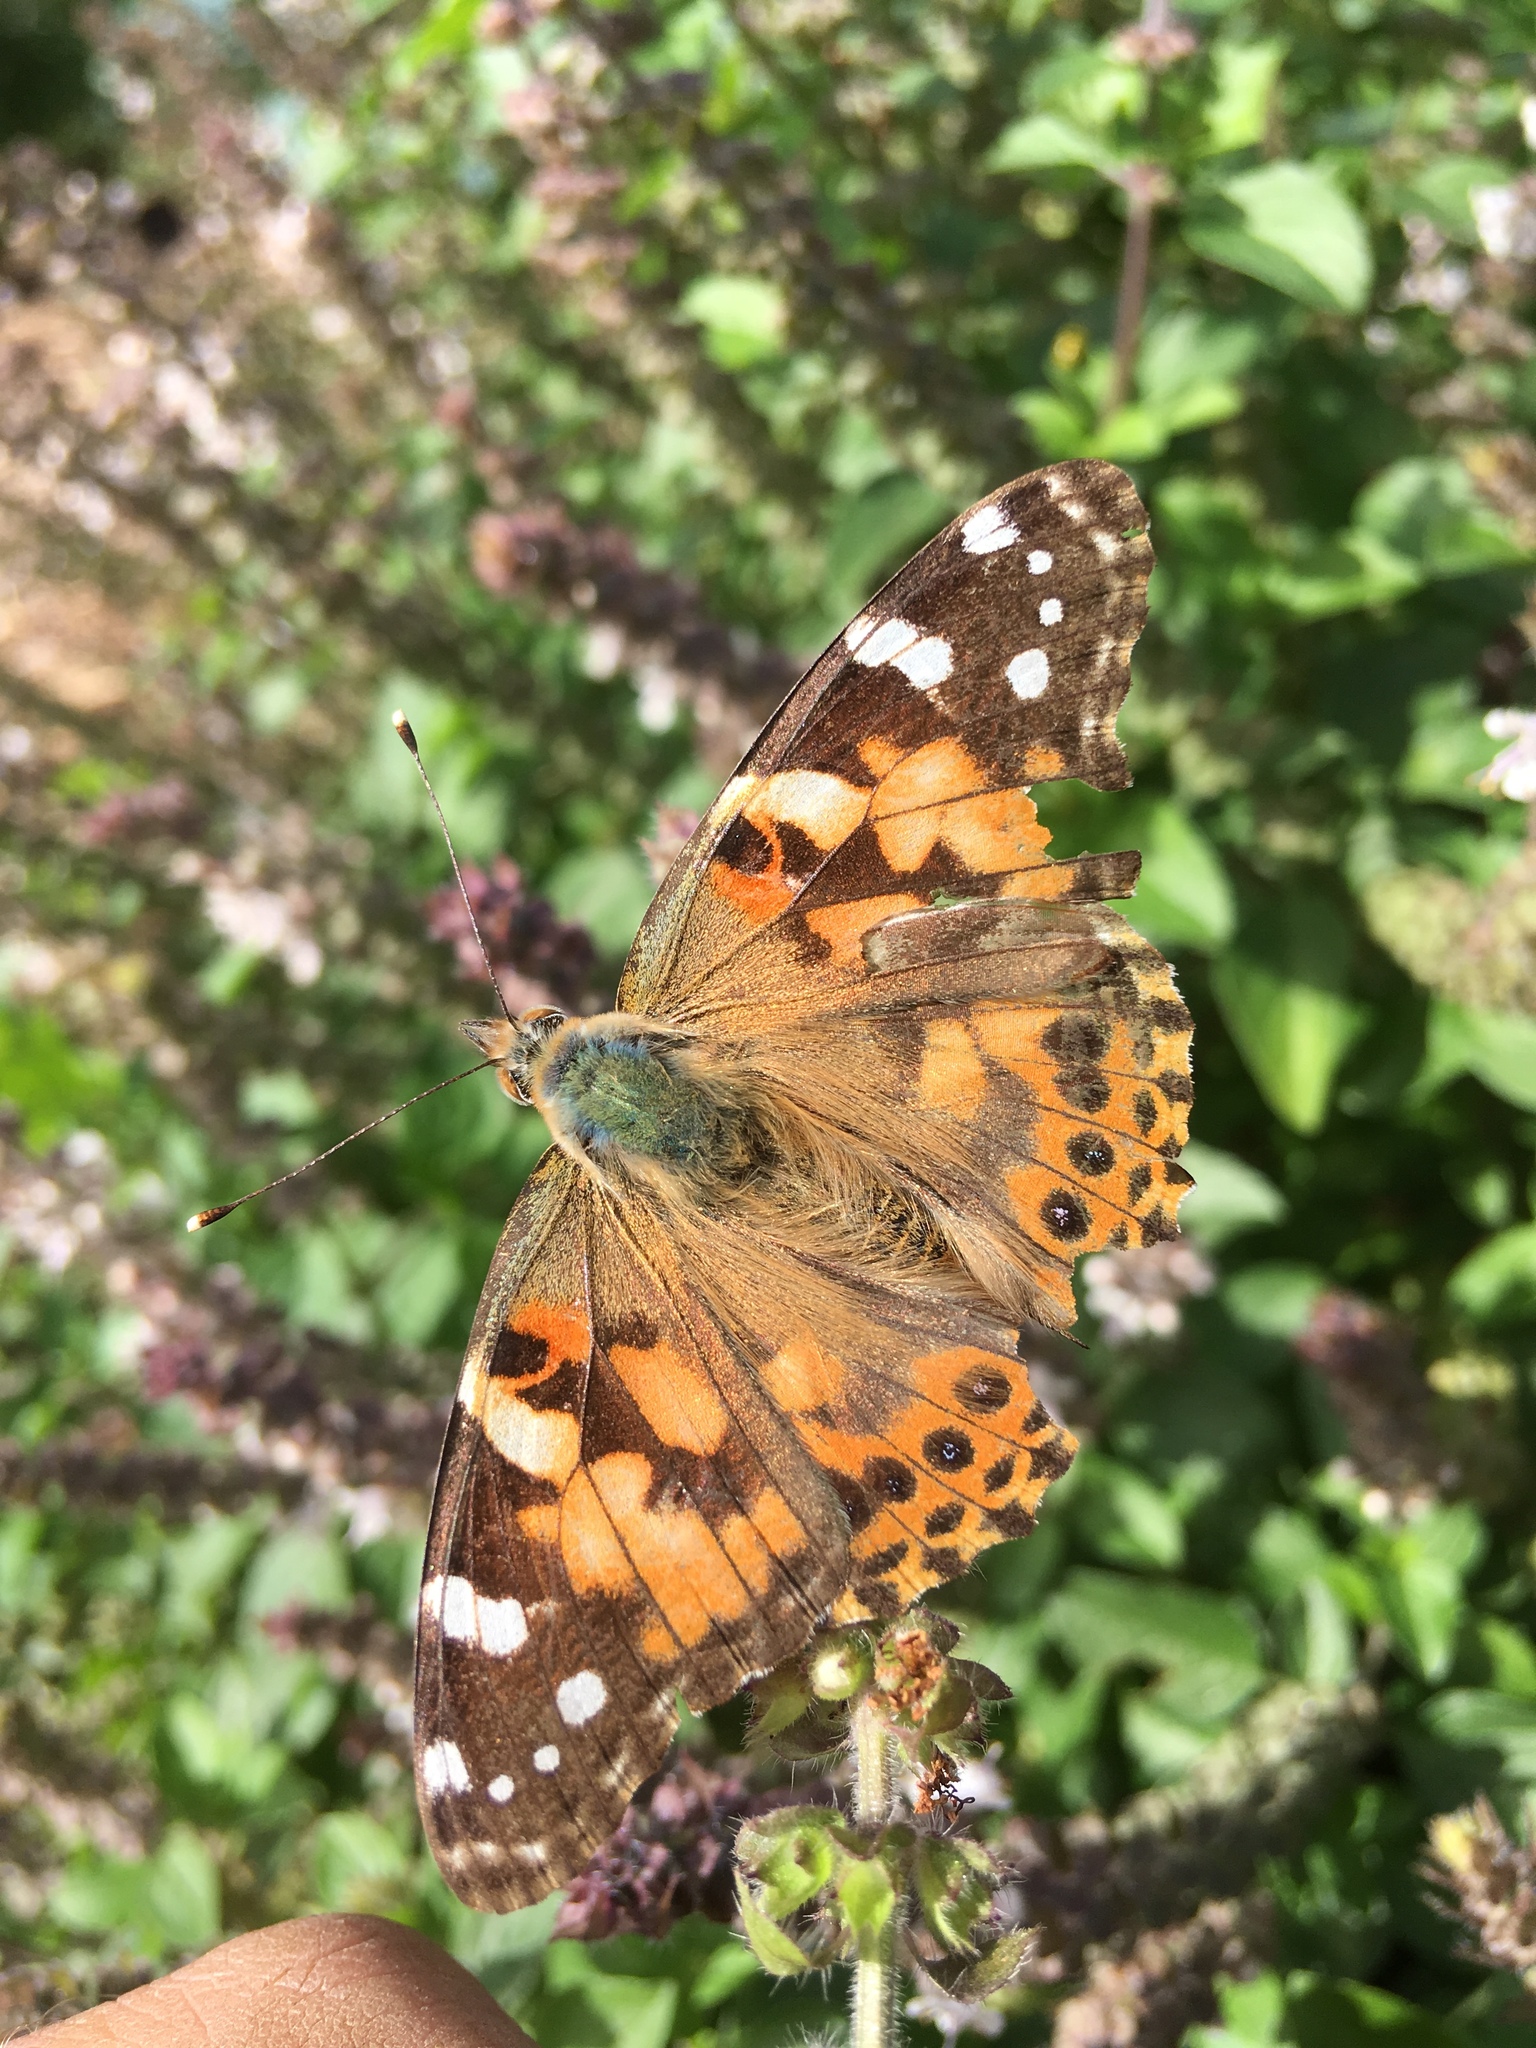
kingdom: Animalia
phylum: Arthropoda
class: Insecta
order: Lepidoptera
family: Nymphalidae
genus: Vanessa
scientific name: Vanessa cardui
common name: Painted lady
